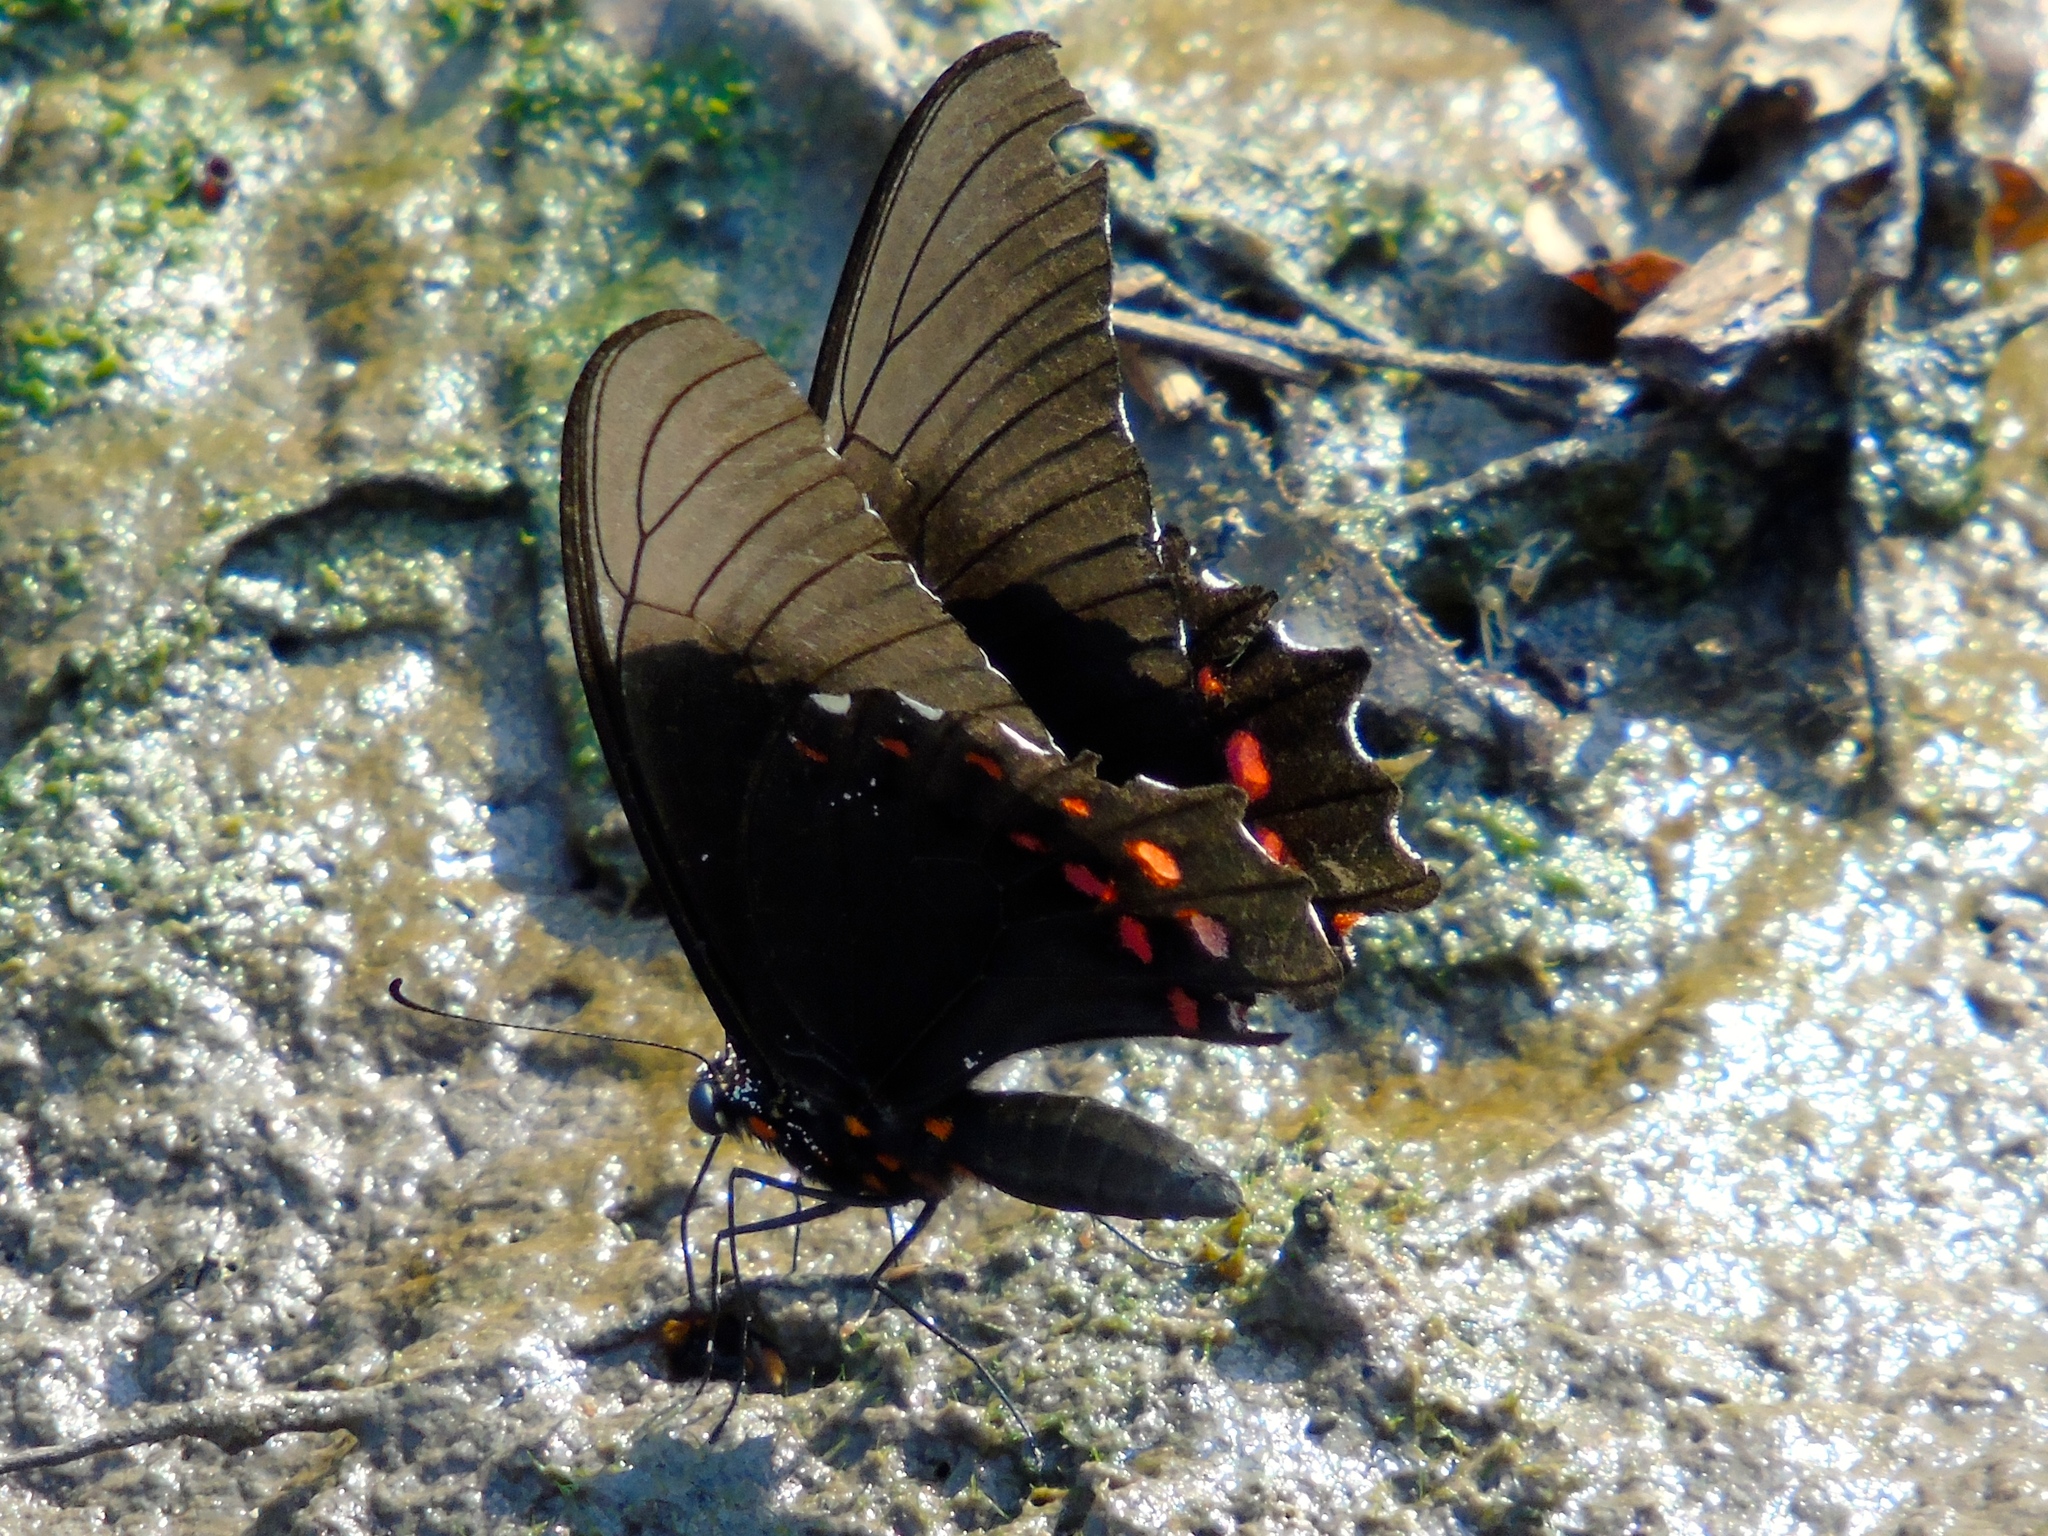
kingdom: Animalia
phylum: Arthropoda
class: Insecta
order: Lepidoptera
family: Papilionidae
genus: Heraclides
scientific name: Heraclides rogeri
